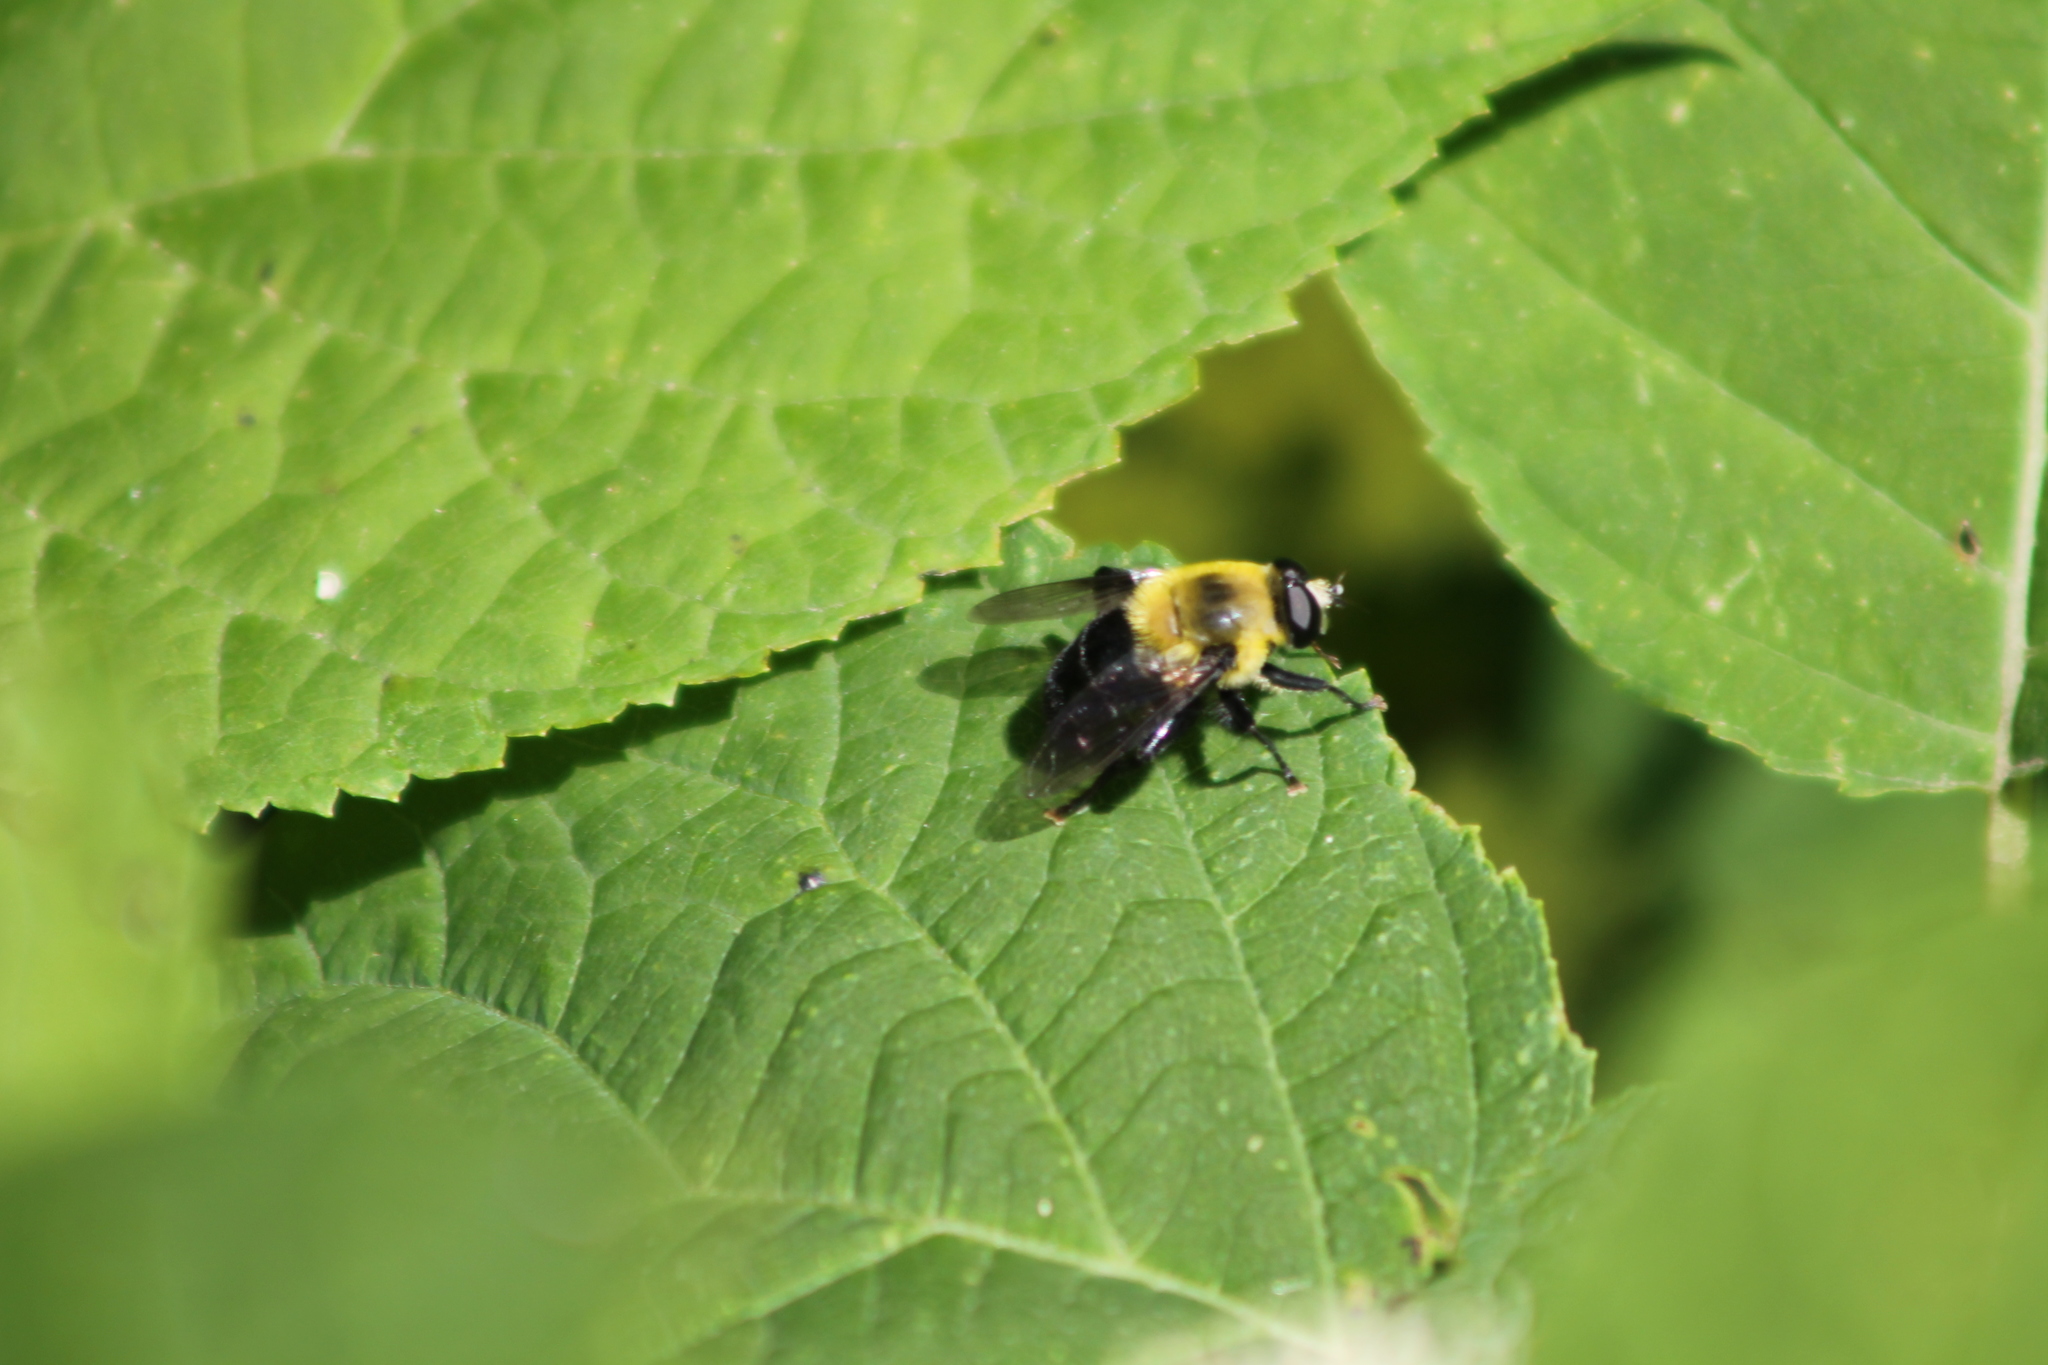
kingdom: Animalia
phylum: Arthropoda
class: Insecta
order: Diptera
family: Syrphidae
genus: Imatisma
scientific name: Imatisma bautias
